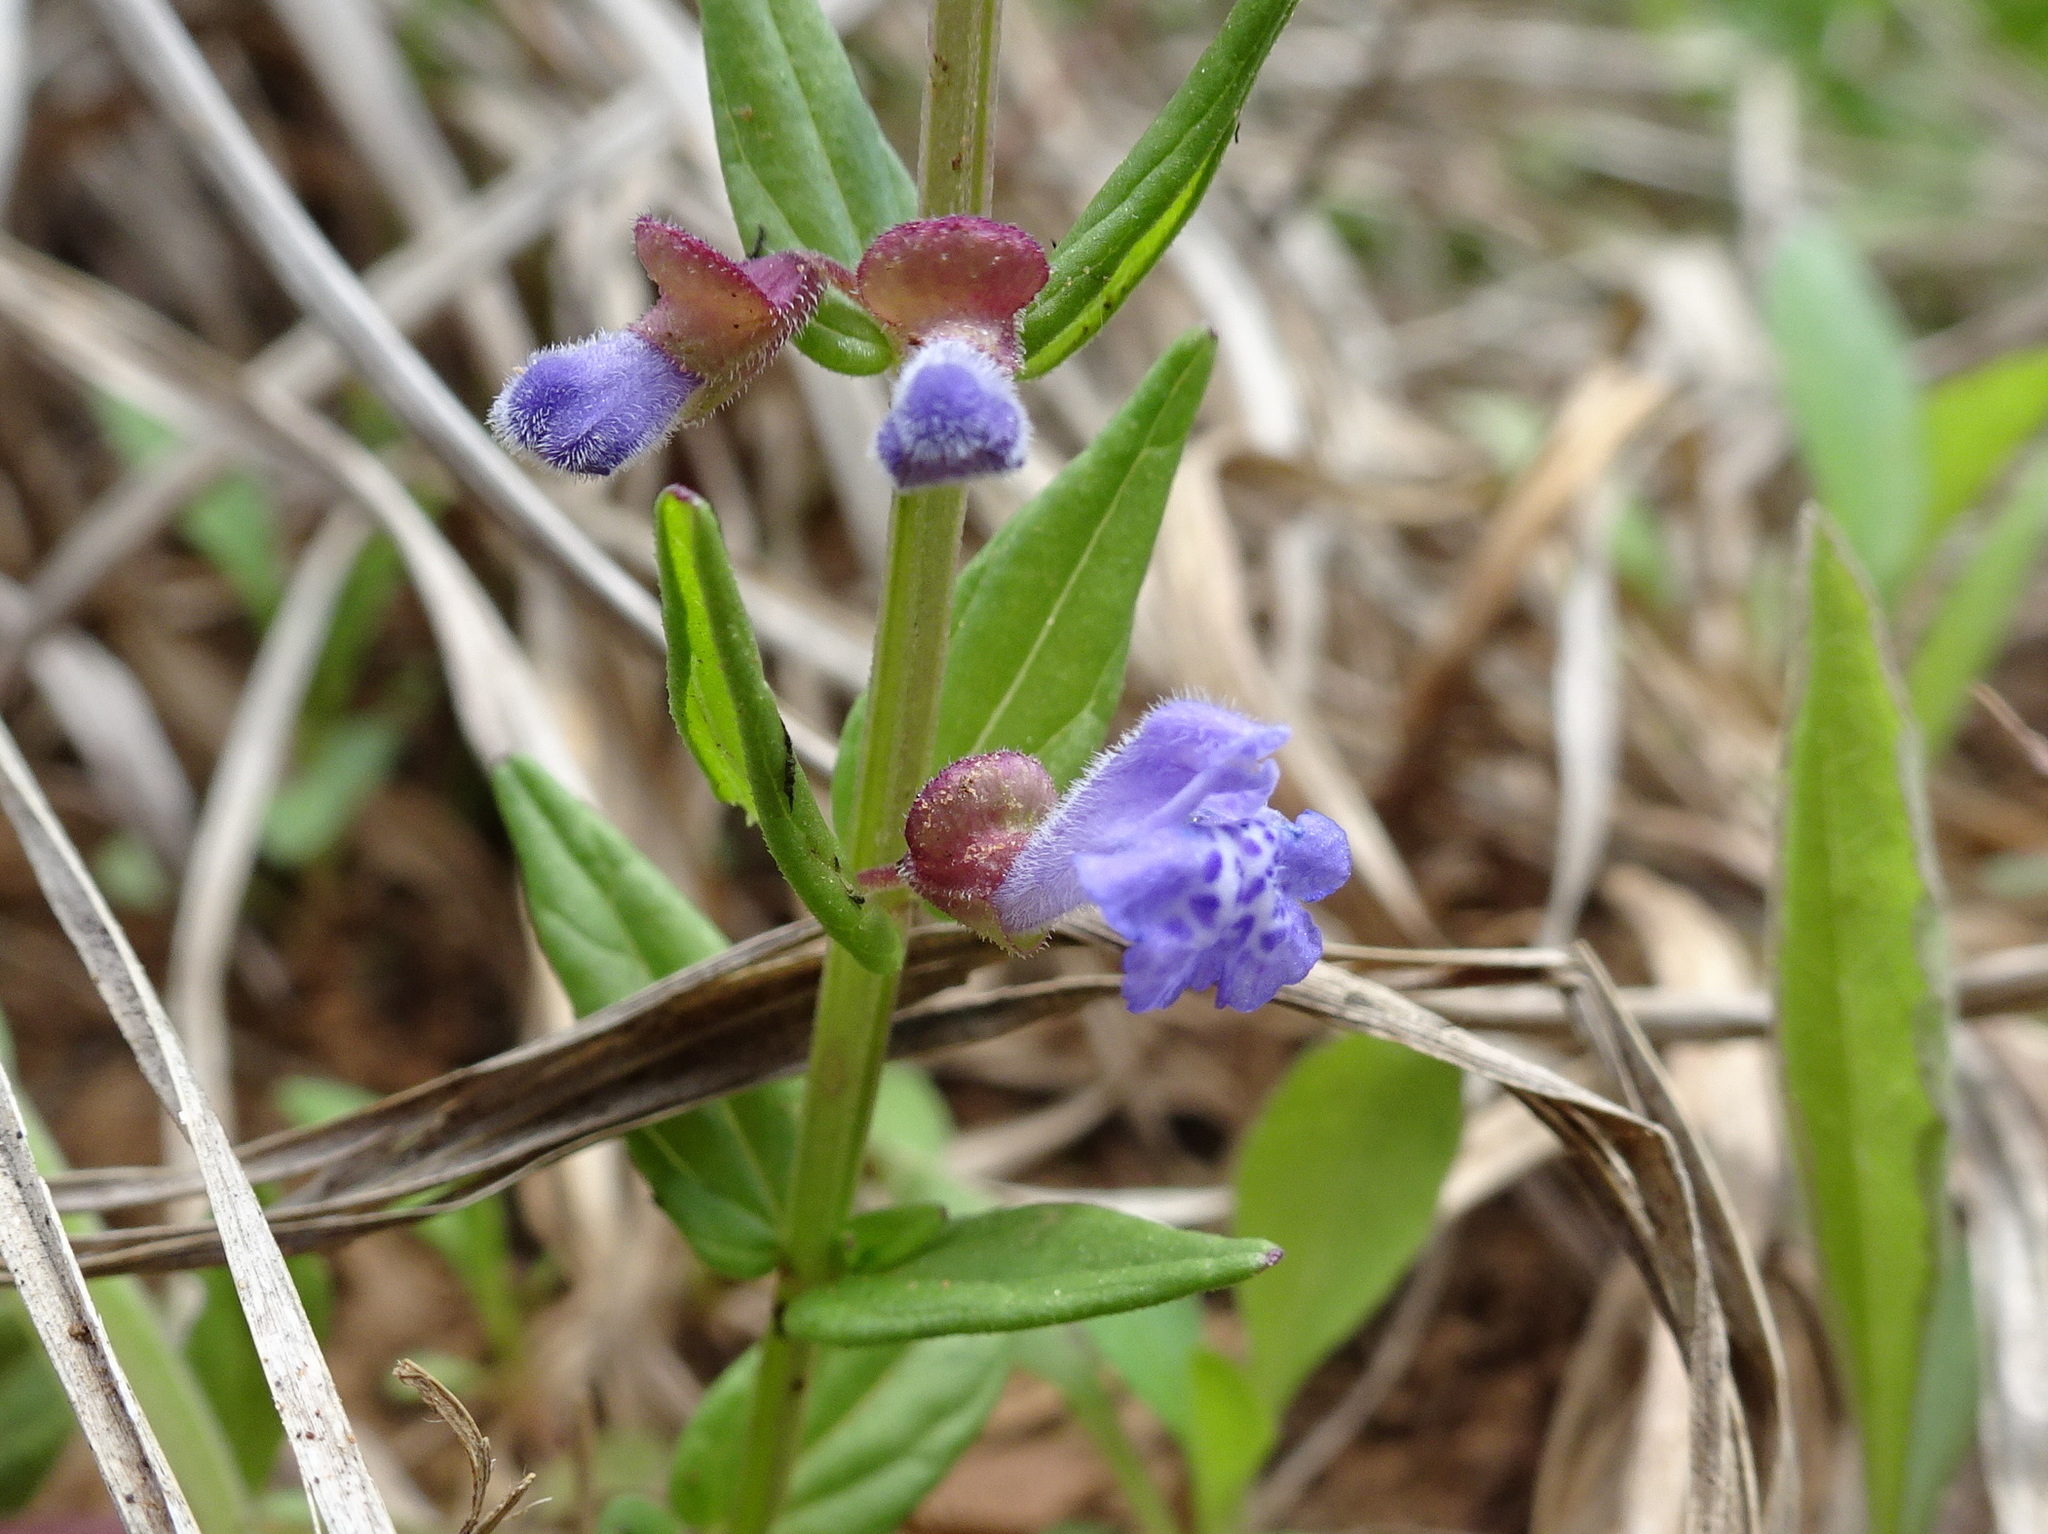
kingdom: Plantae
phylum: Tracheophyta
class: Magnoliopsida
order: Lamiales
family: Lamiaceae
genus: Scutellaria
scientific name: Scutellaria parvula
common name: Little scullcap
